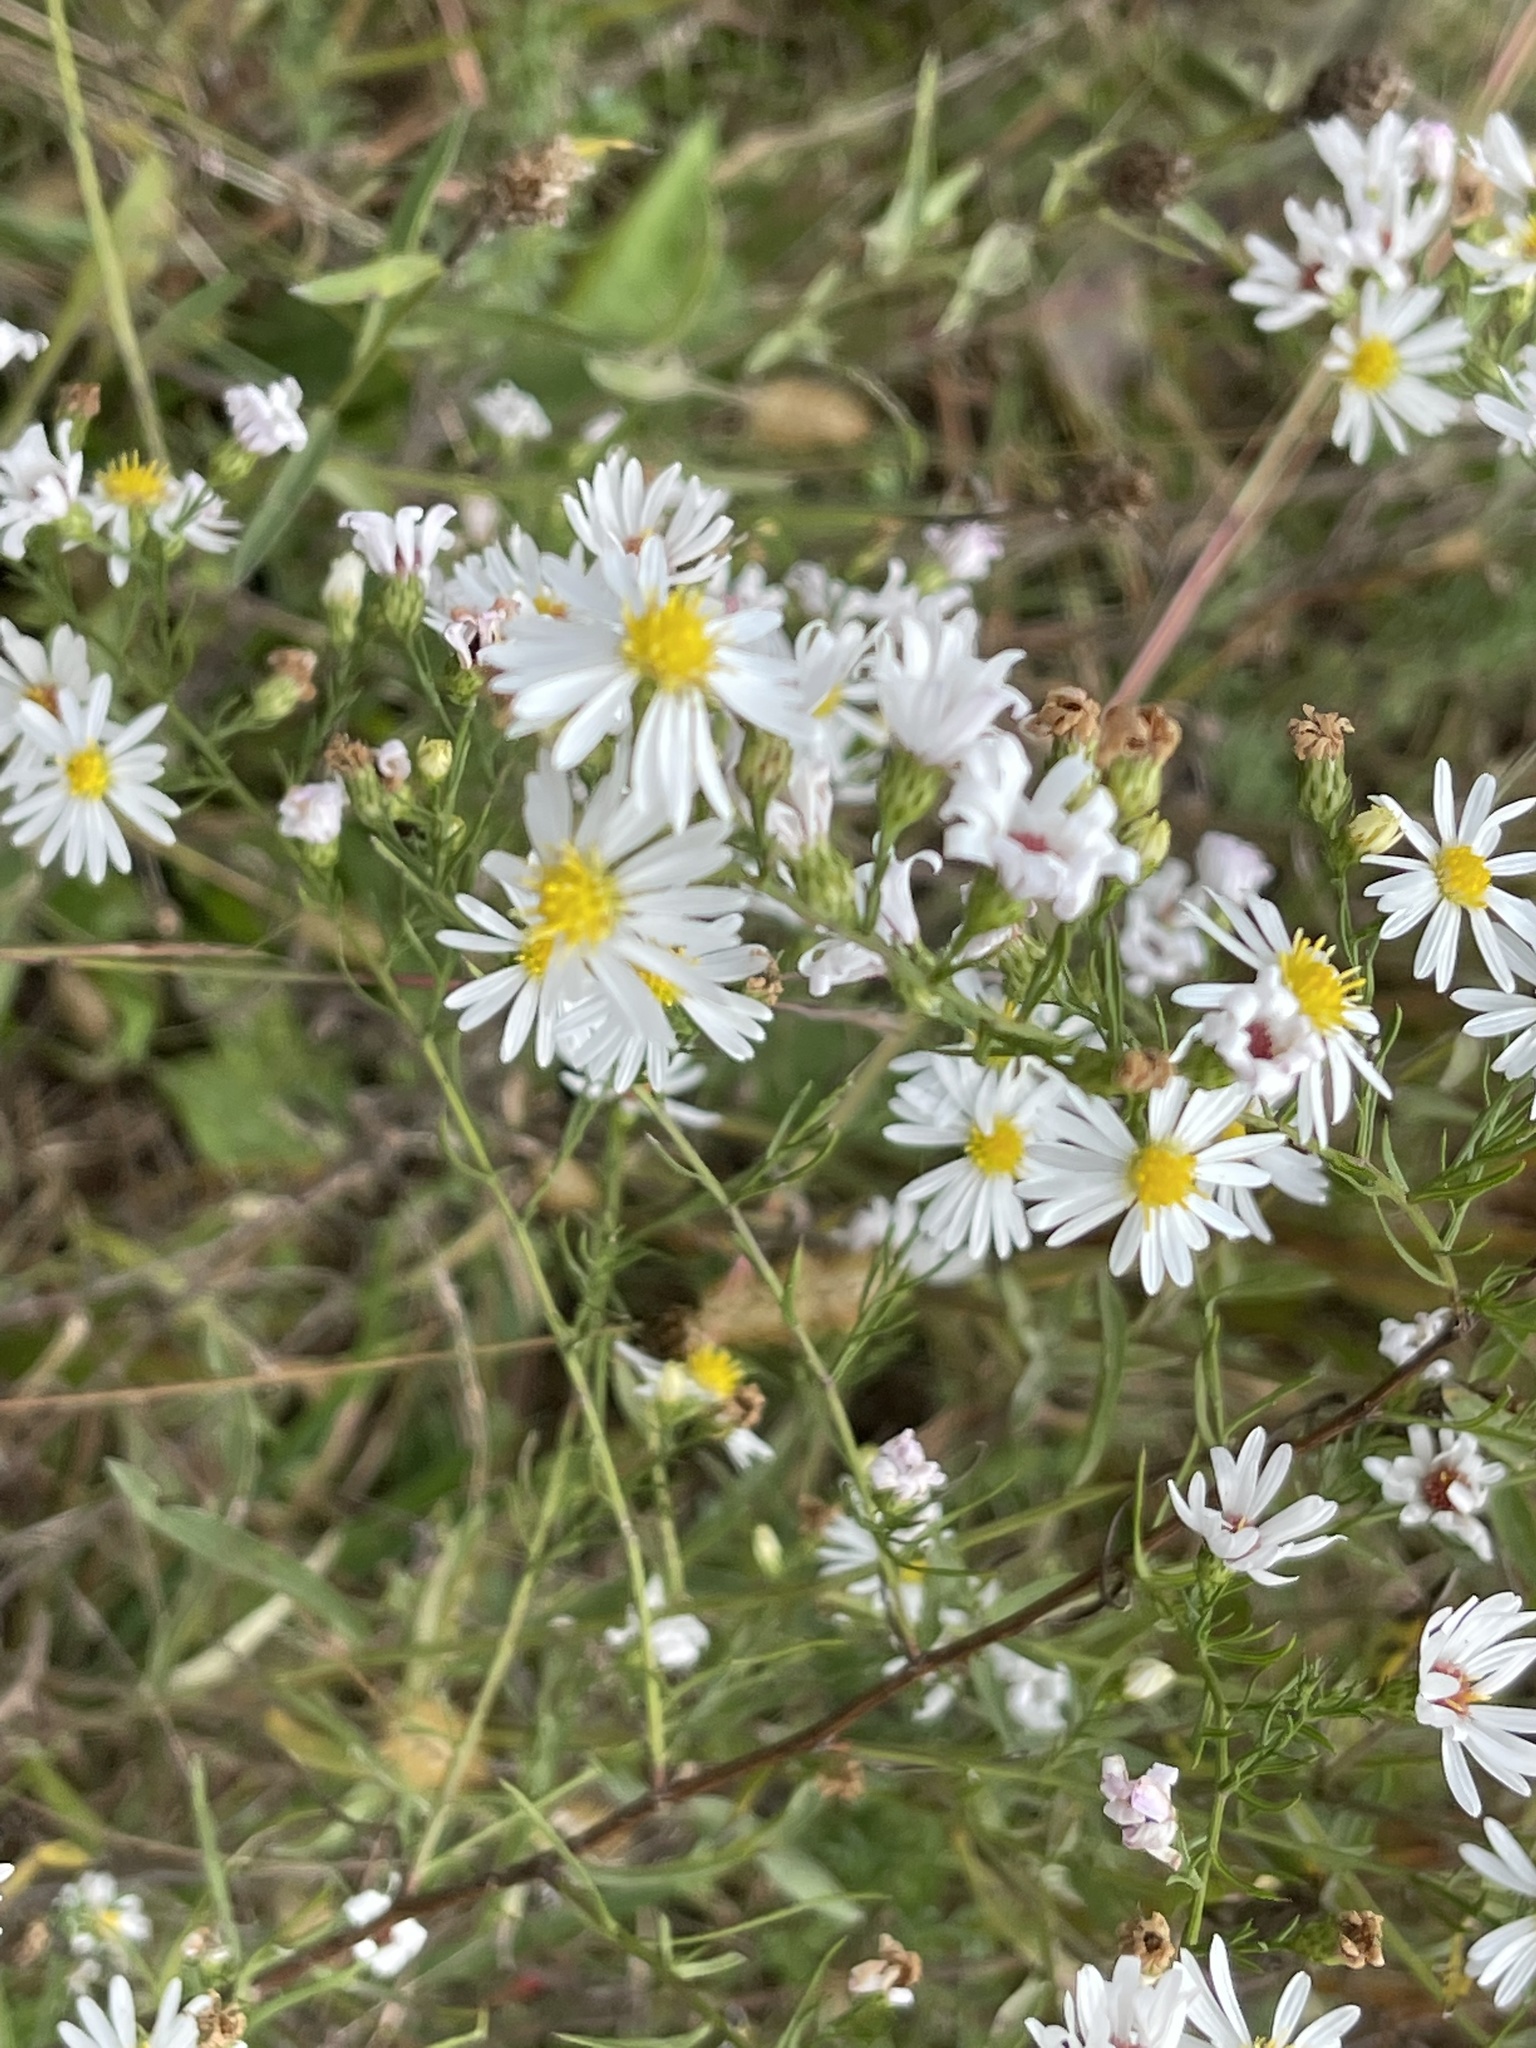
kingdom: Plantae
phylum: Tracheophyta
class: Magnoliopsida
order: Asterales
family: Asteraceae
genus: Symphyotrichum
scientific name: Symphyotrichum pilosum
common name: Awl aster
